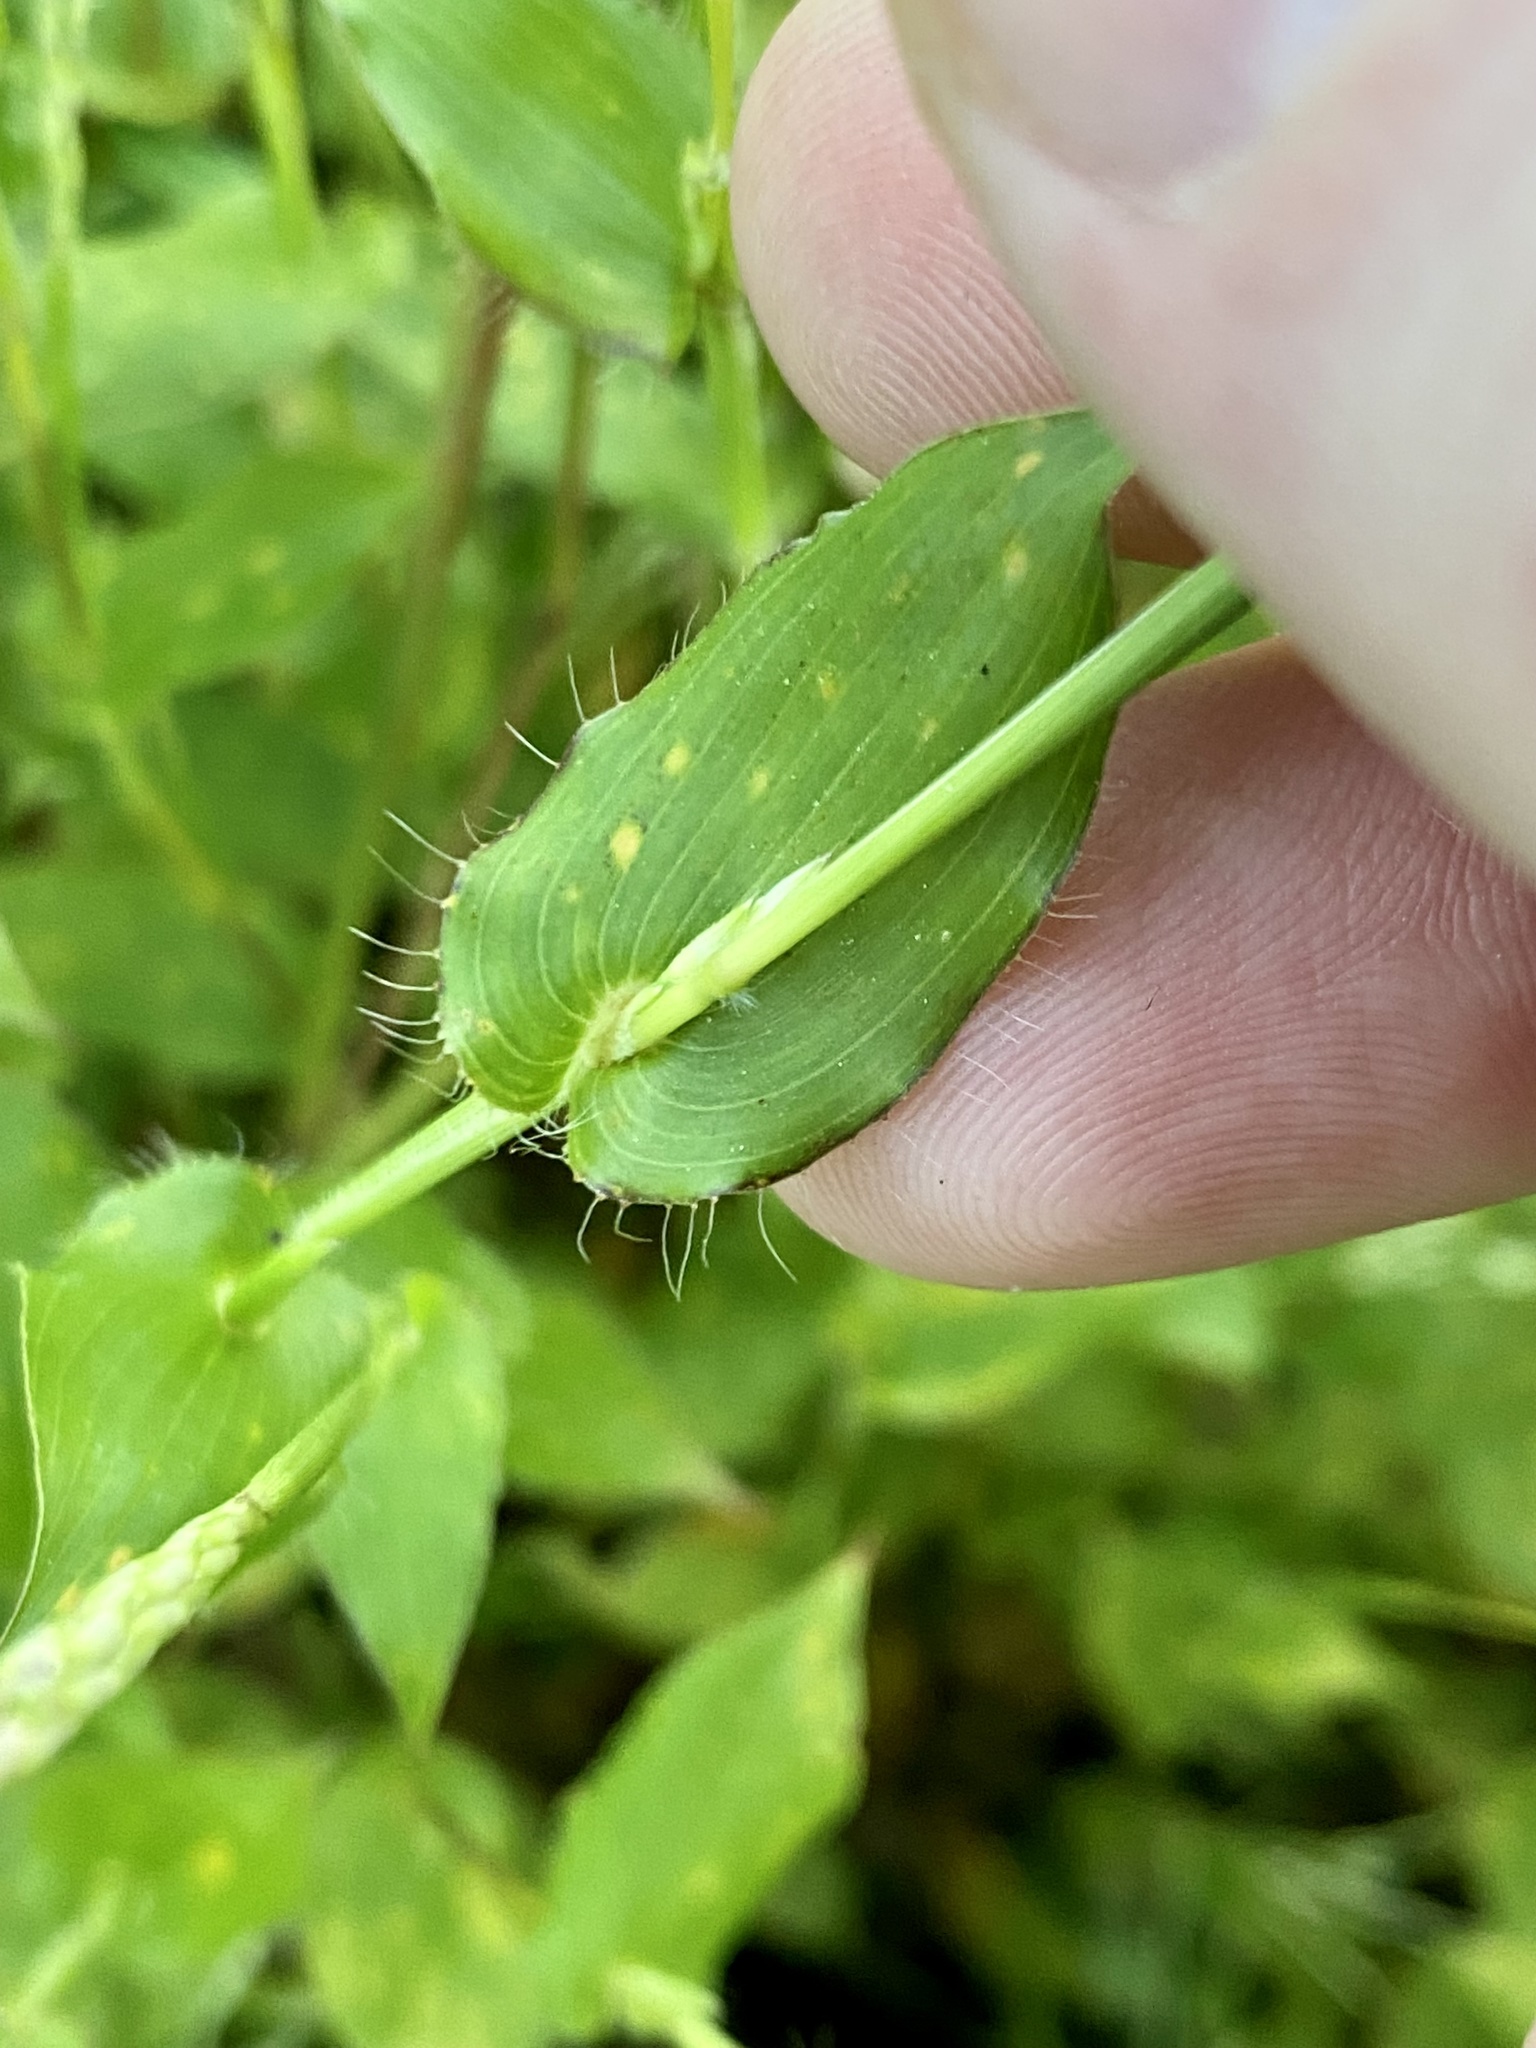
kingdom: Plantae
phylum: Tracheophyta
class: Liliopsida
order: Poales
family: Poaceae
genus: Arthraxon
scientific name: Arthraxon hispidus
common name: Small carpgrass
